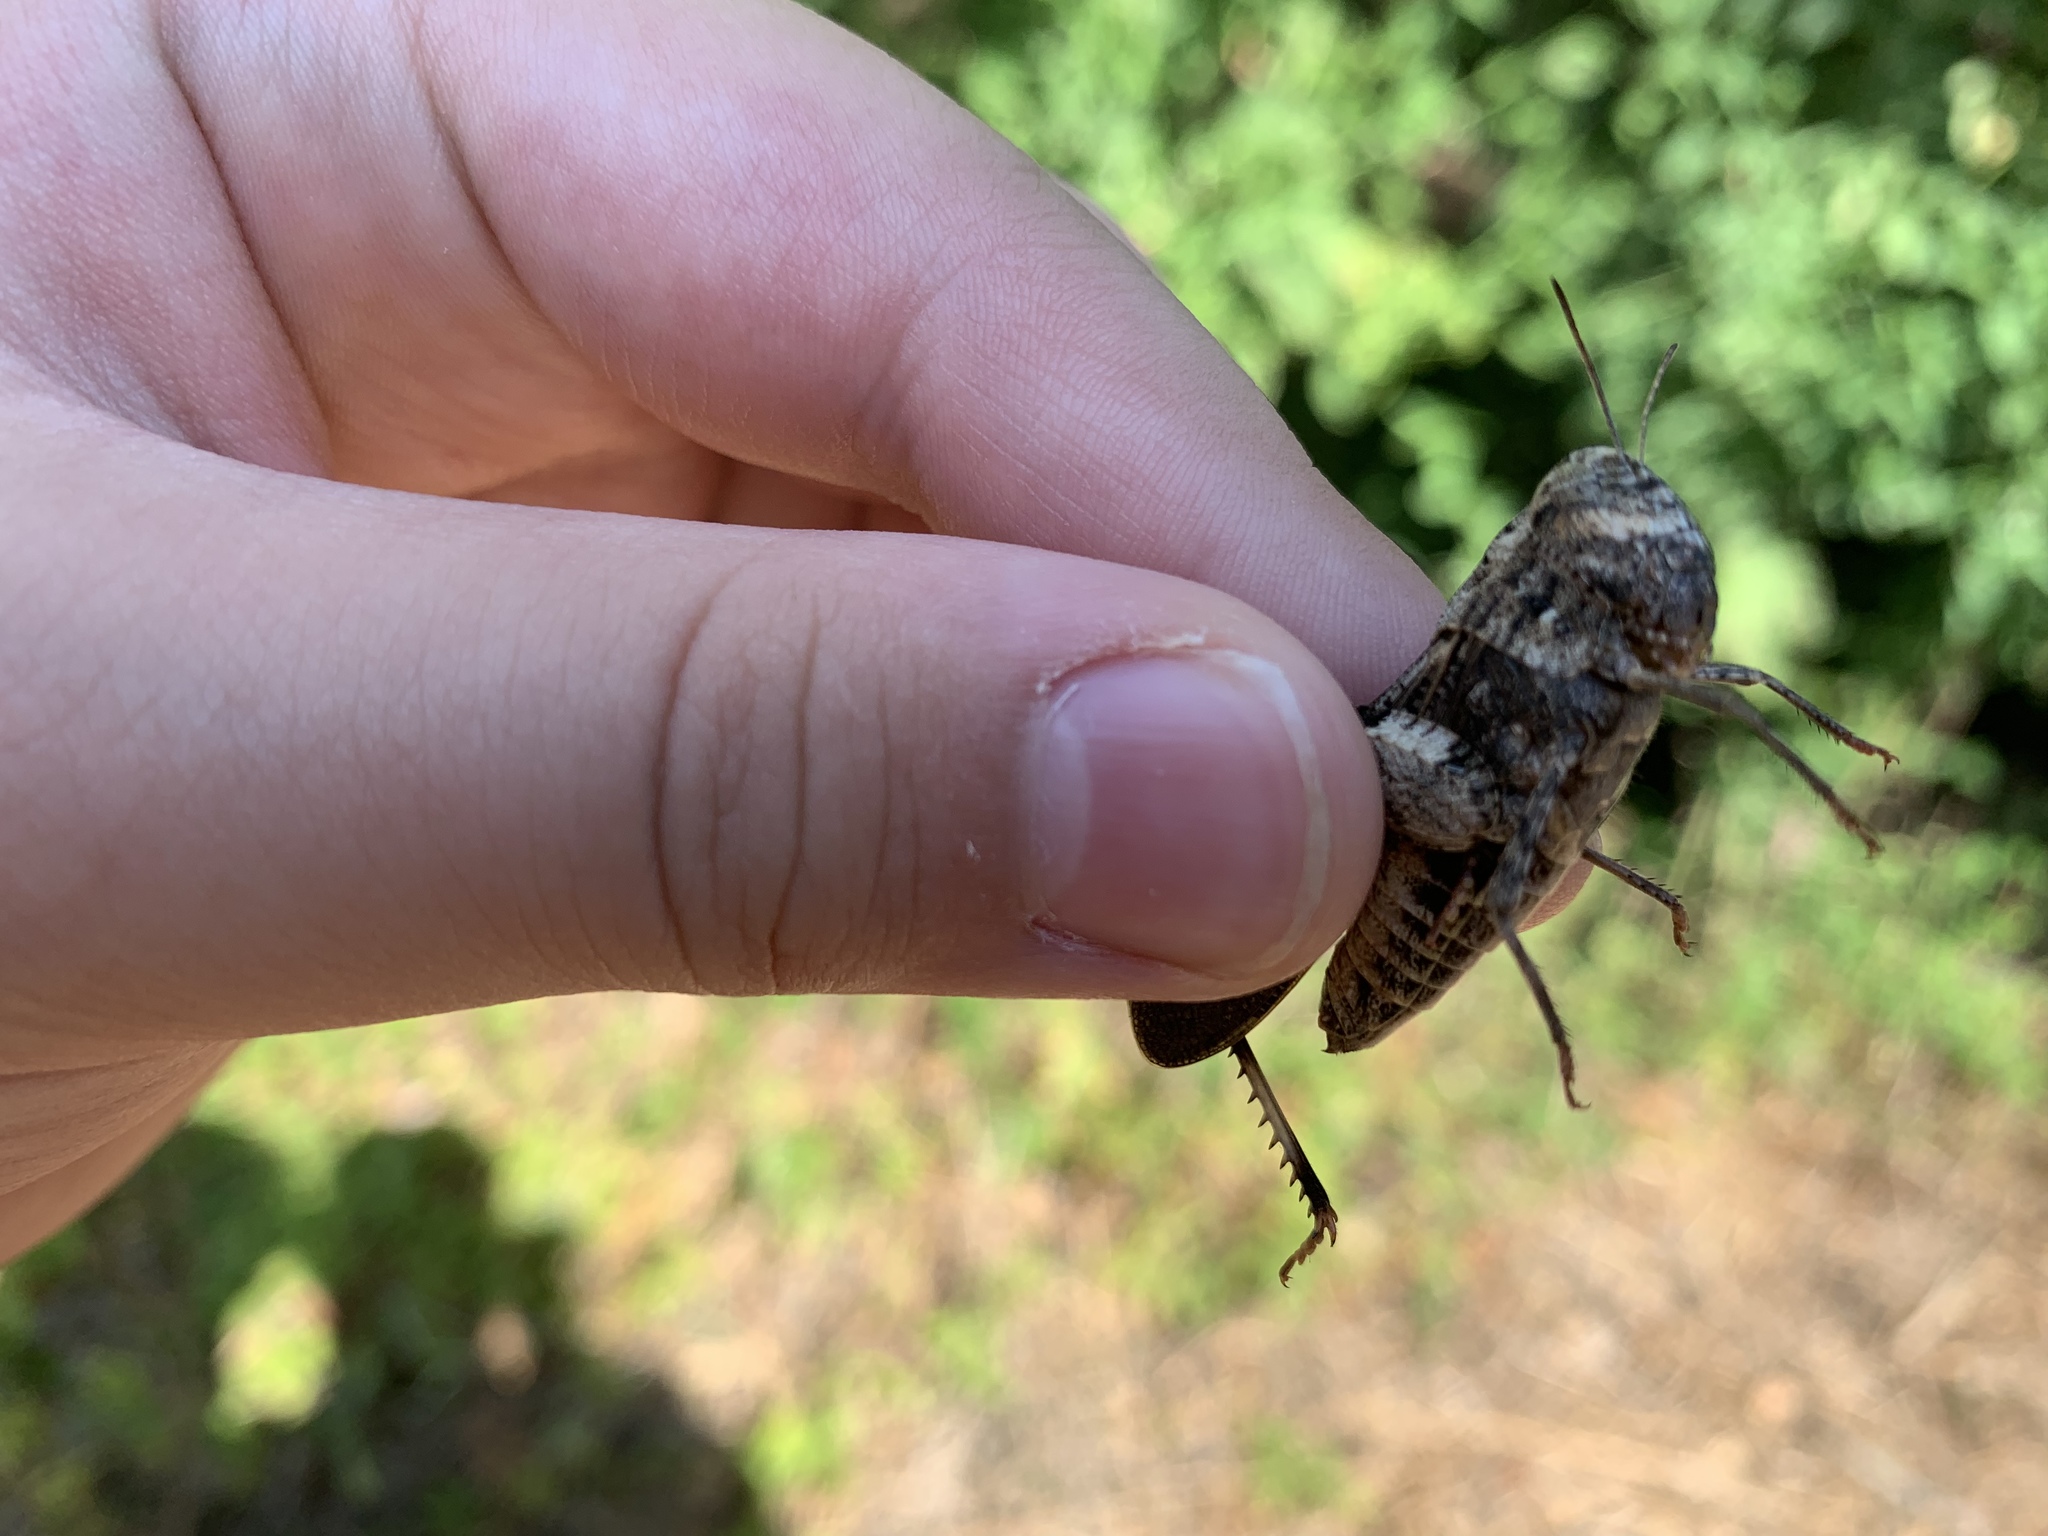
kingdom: Animalia
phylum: Arthropoda
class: Insecta
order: Orthoptera
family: Acrididae
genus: Encoptolophus
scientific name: Encoptolophus costalis
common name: Dusky grasshopper
